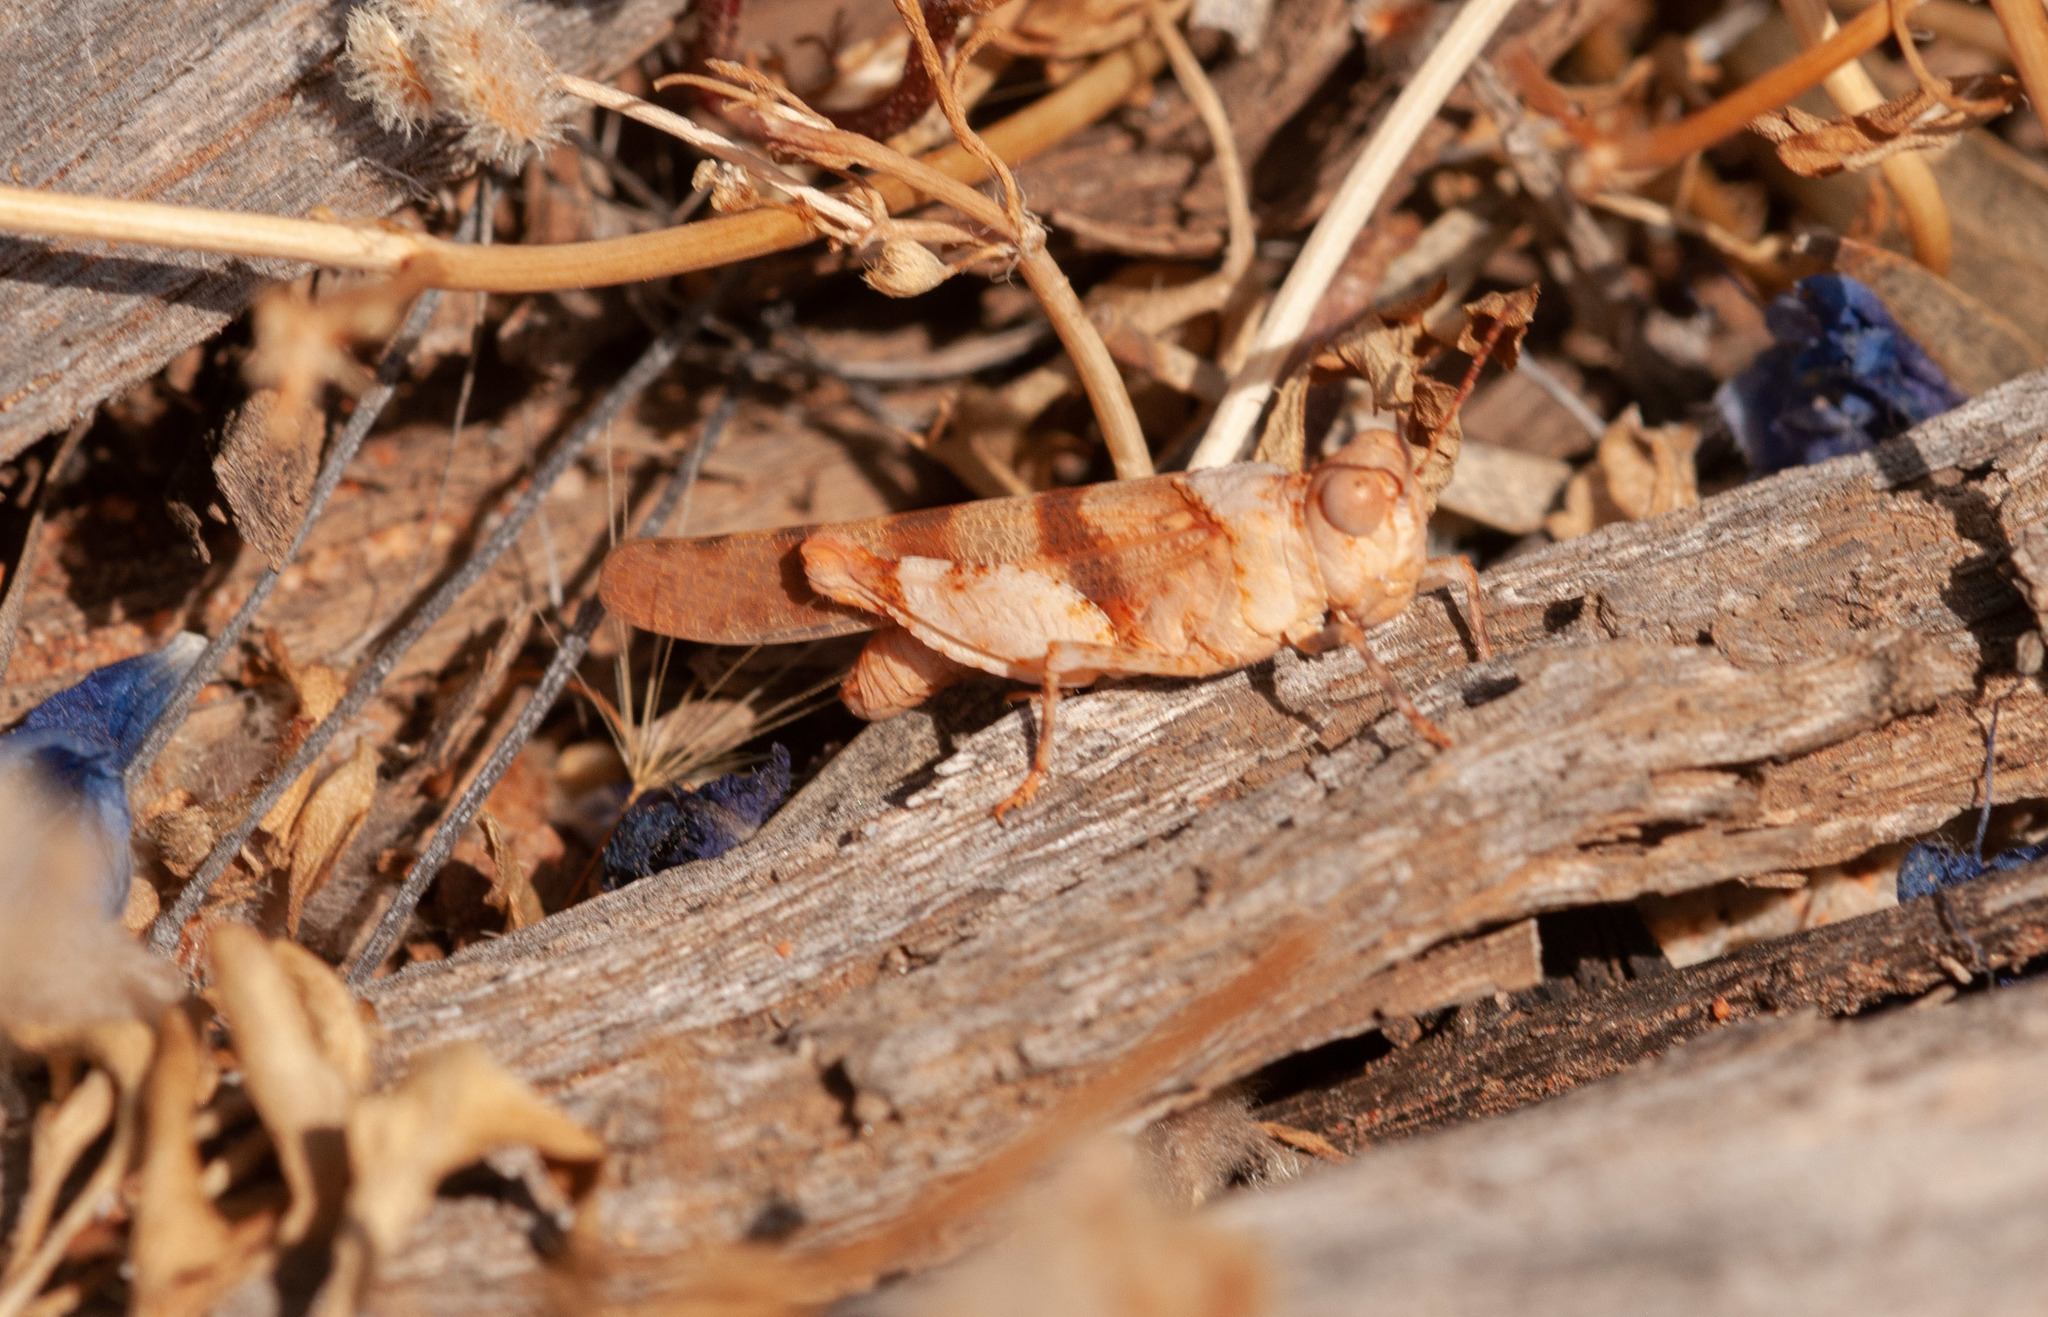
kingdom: Animalia
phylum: Arthropoda
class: Insecta
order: Orthoptera
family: Acrididae
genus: Qualetta
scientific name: Qualetta maculata
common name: Spotted bandwing
